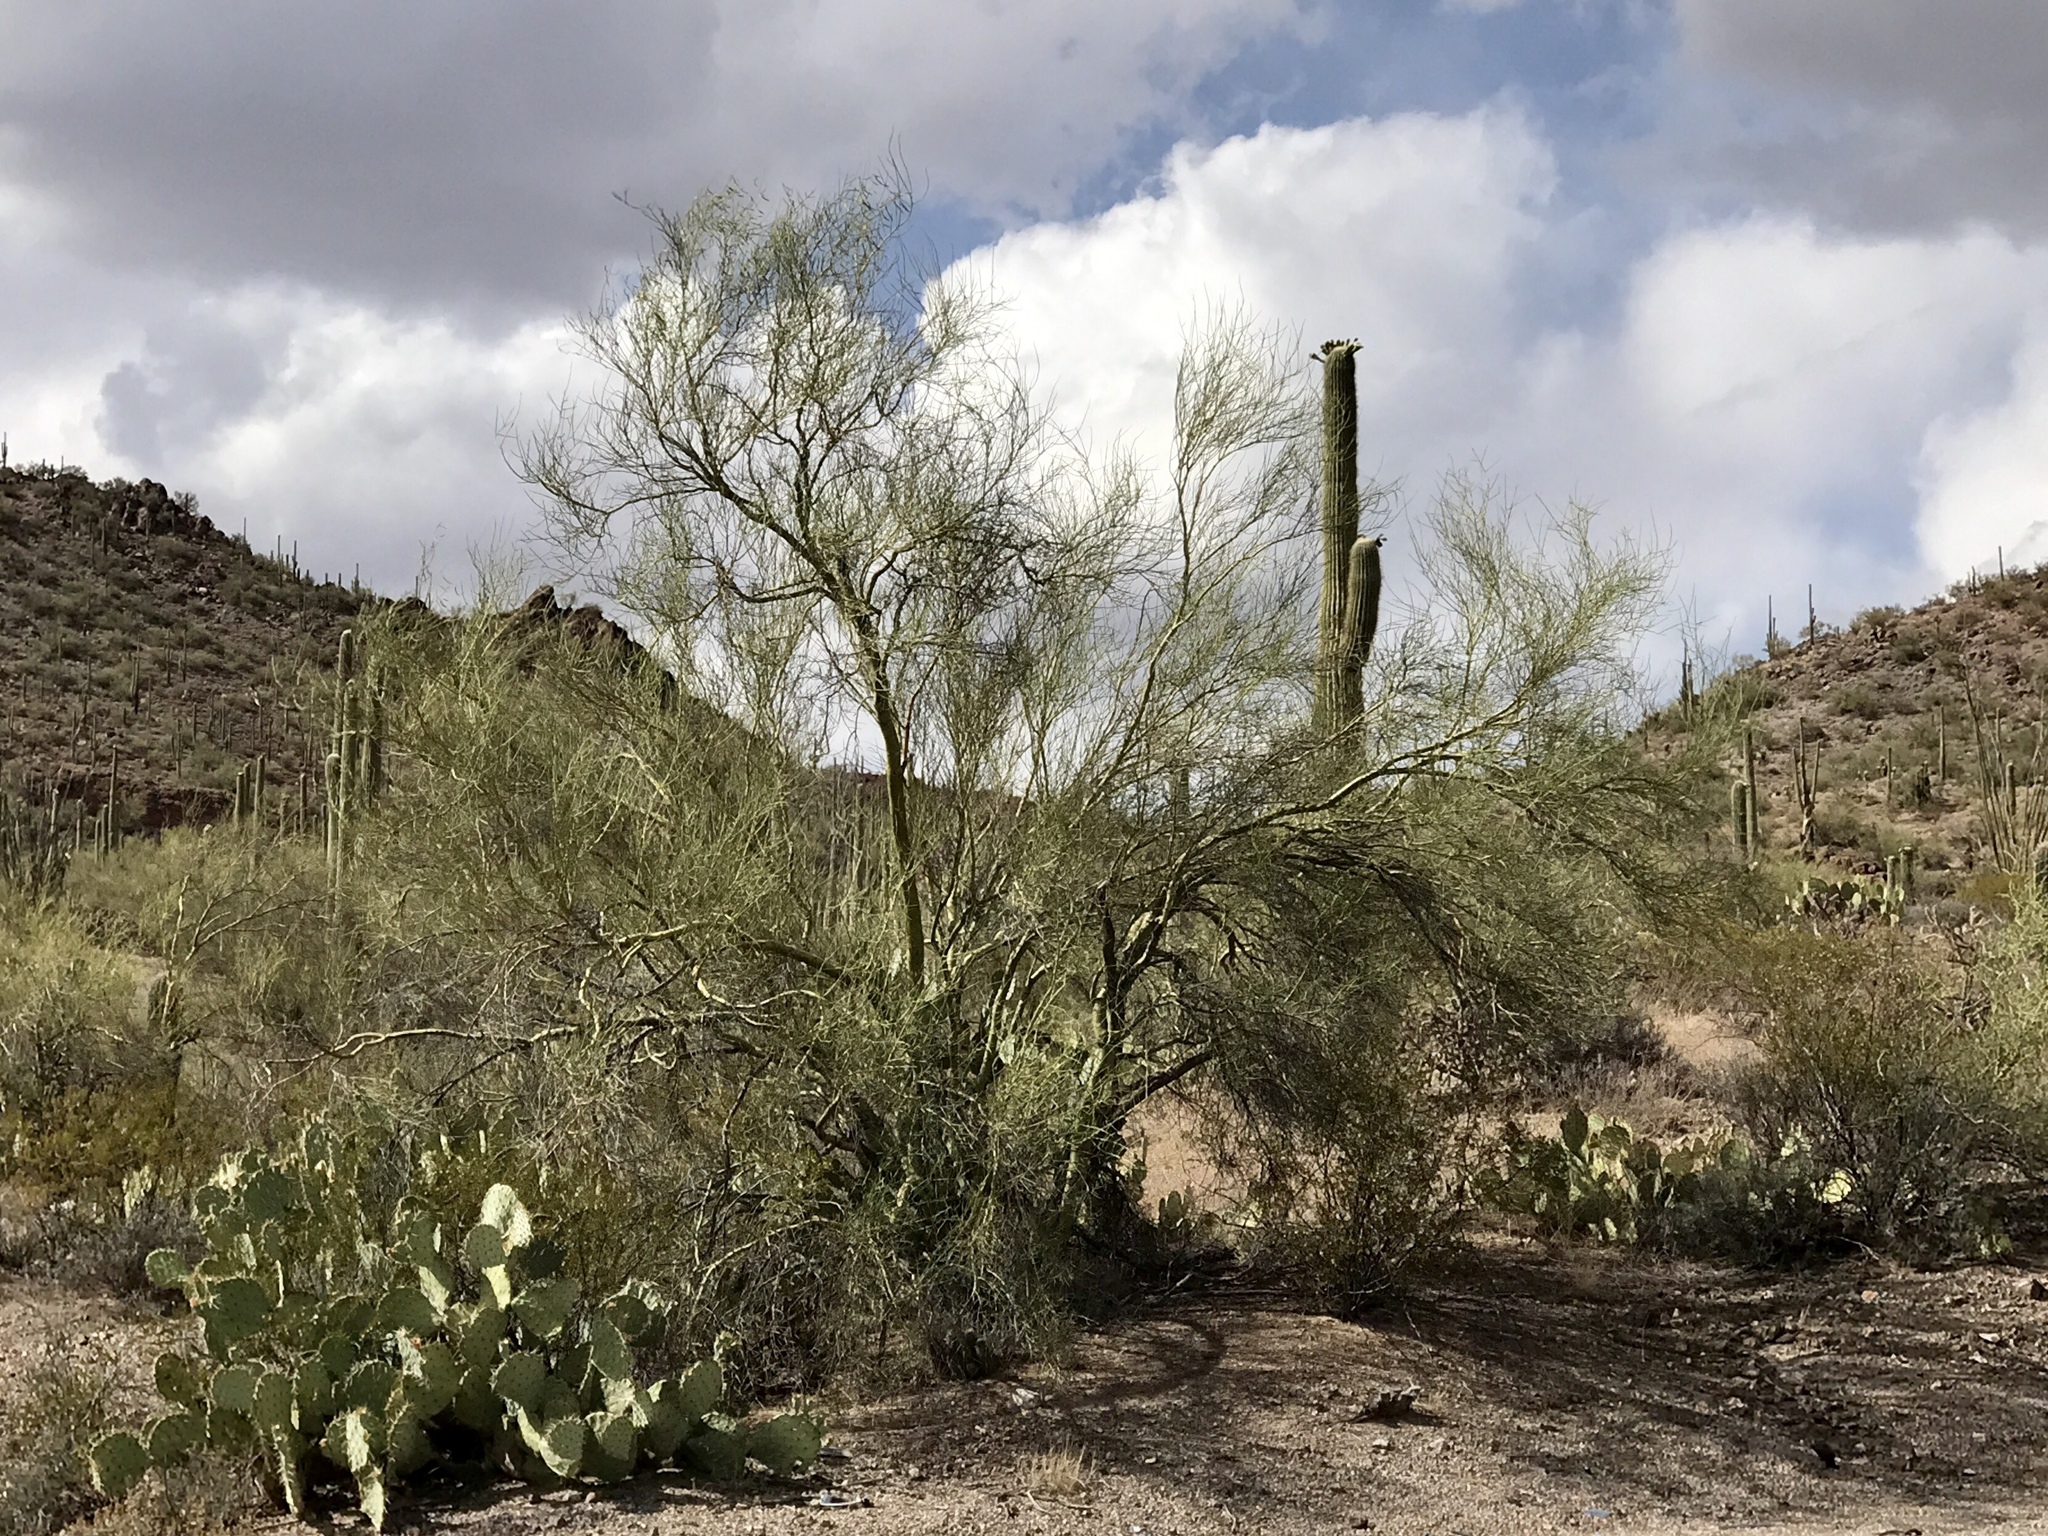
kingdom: Plantae
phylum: Tracheophyta
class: Magnoliopsida
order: Fabales
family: Fabaceae
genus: Parkinsonia
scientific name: Parkinsonia microphylla
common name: Yellow paloverde
